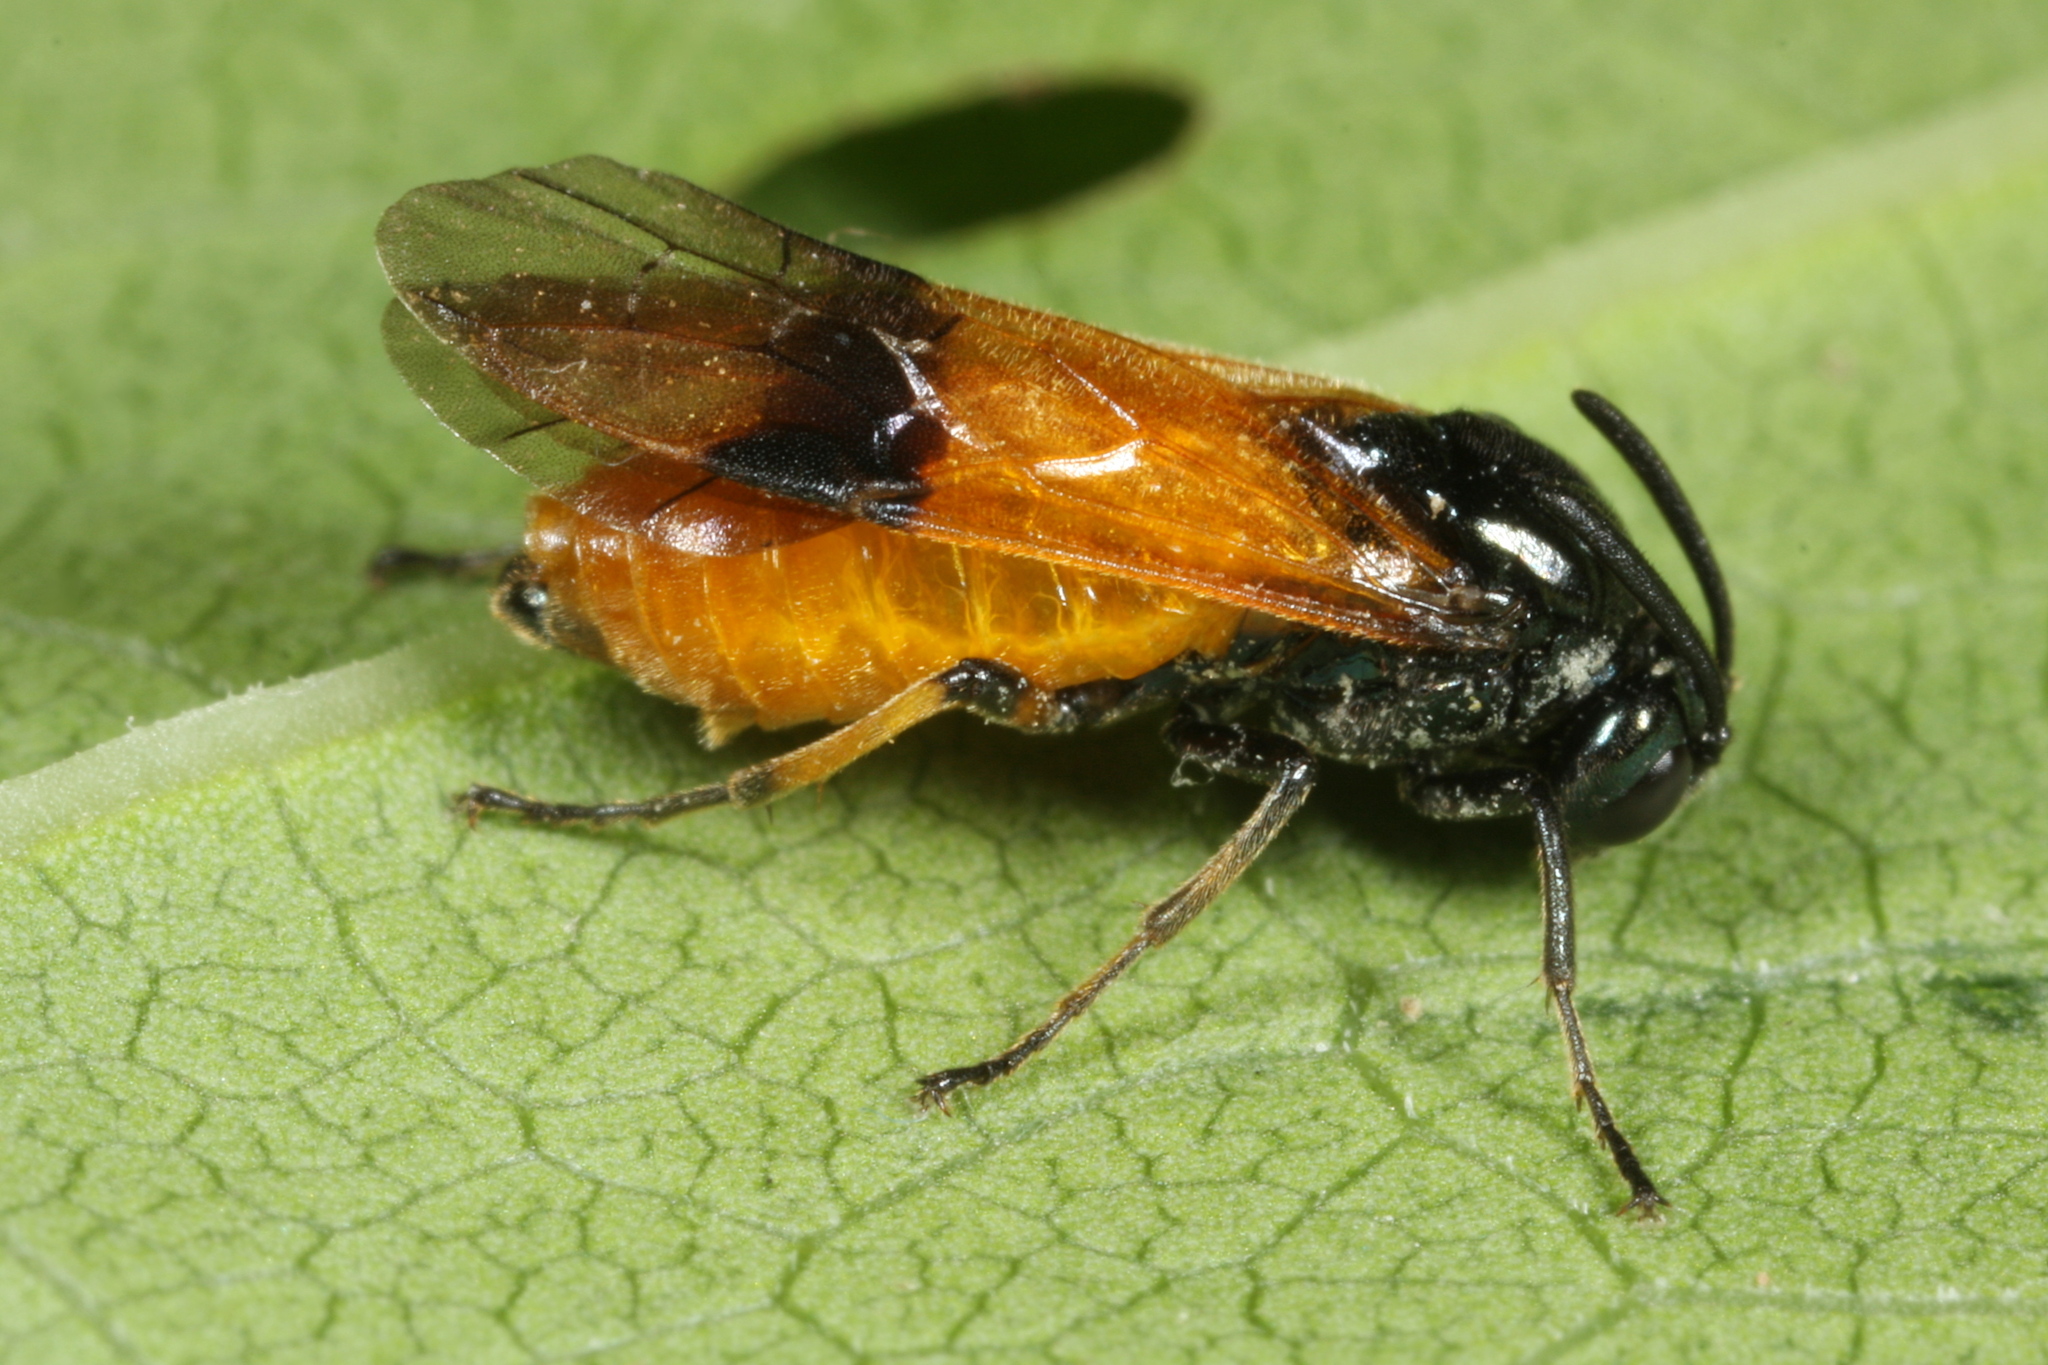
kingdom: Animalia
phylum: Arthropoda
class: Insecta
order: Hymenoptera
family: Argidae
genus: Arge
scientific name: Arge cyanocrocea
